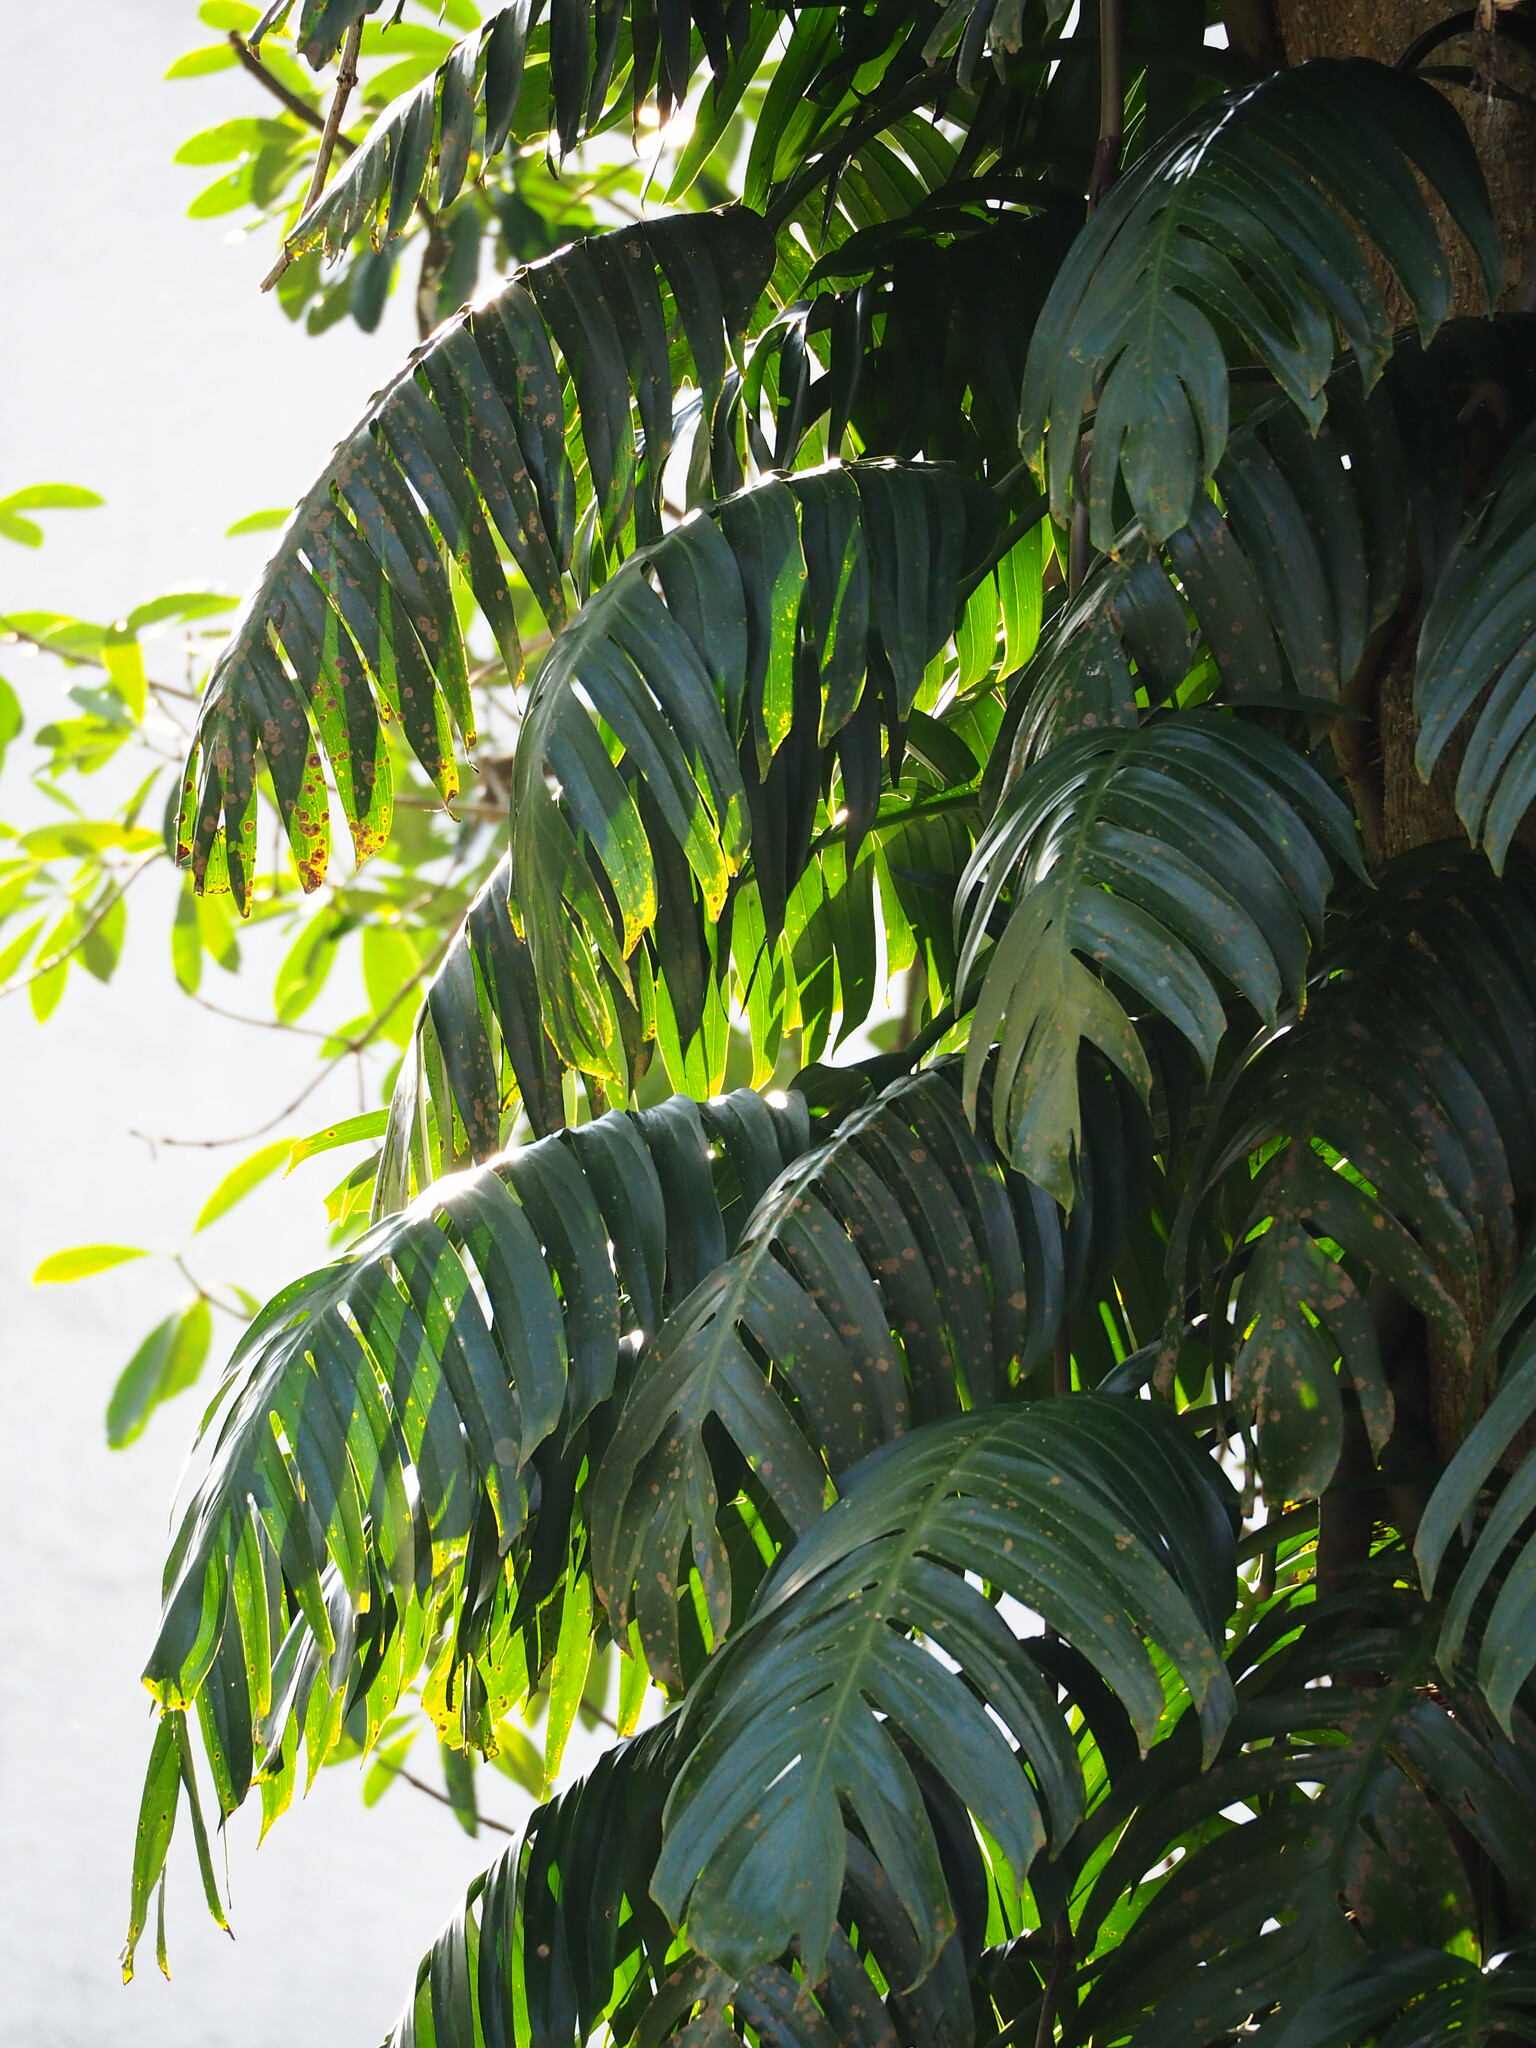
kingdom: Plantae
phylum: Tracheophyta
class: Liliopsida
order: Alismatales
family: Araceae
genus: Epipremnum
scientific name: Epipremnum pinnatum
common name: Centipede tongavine
